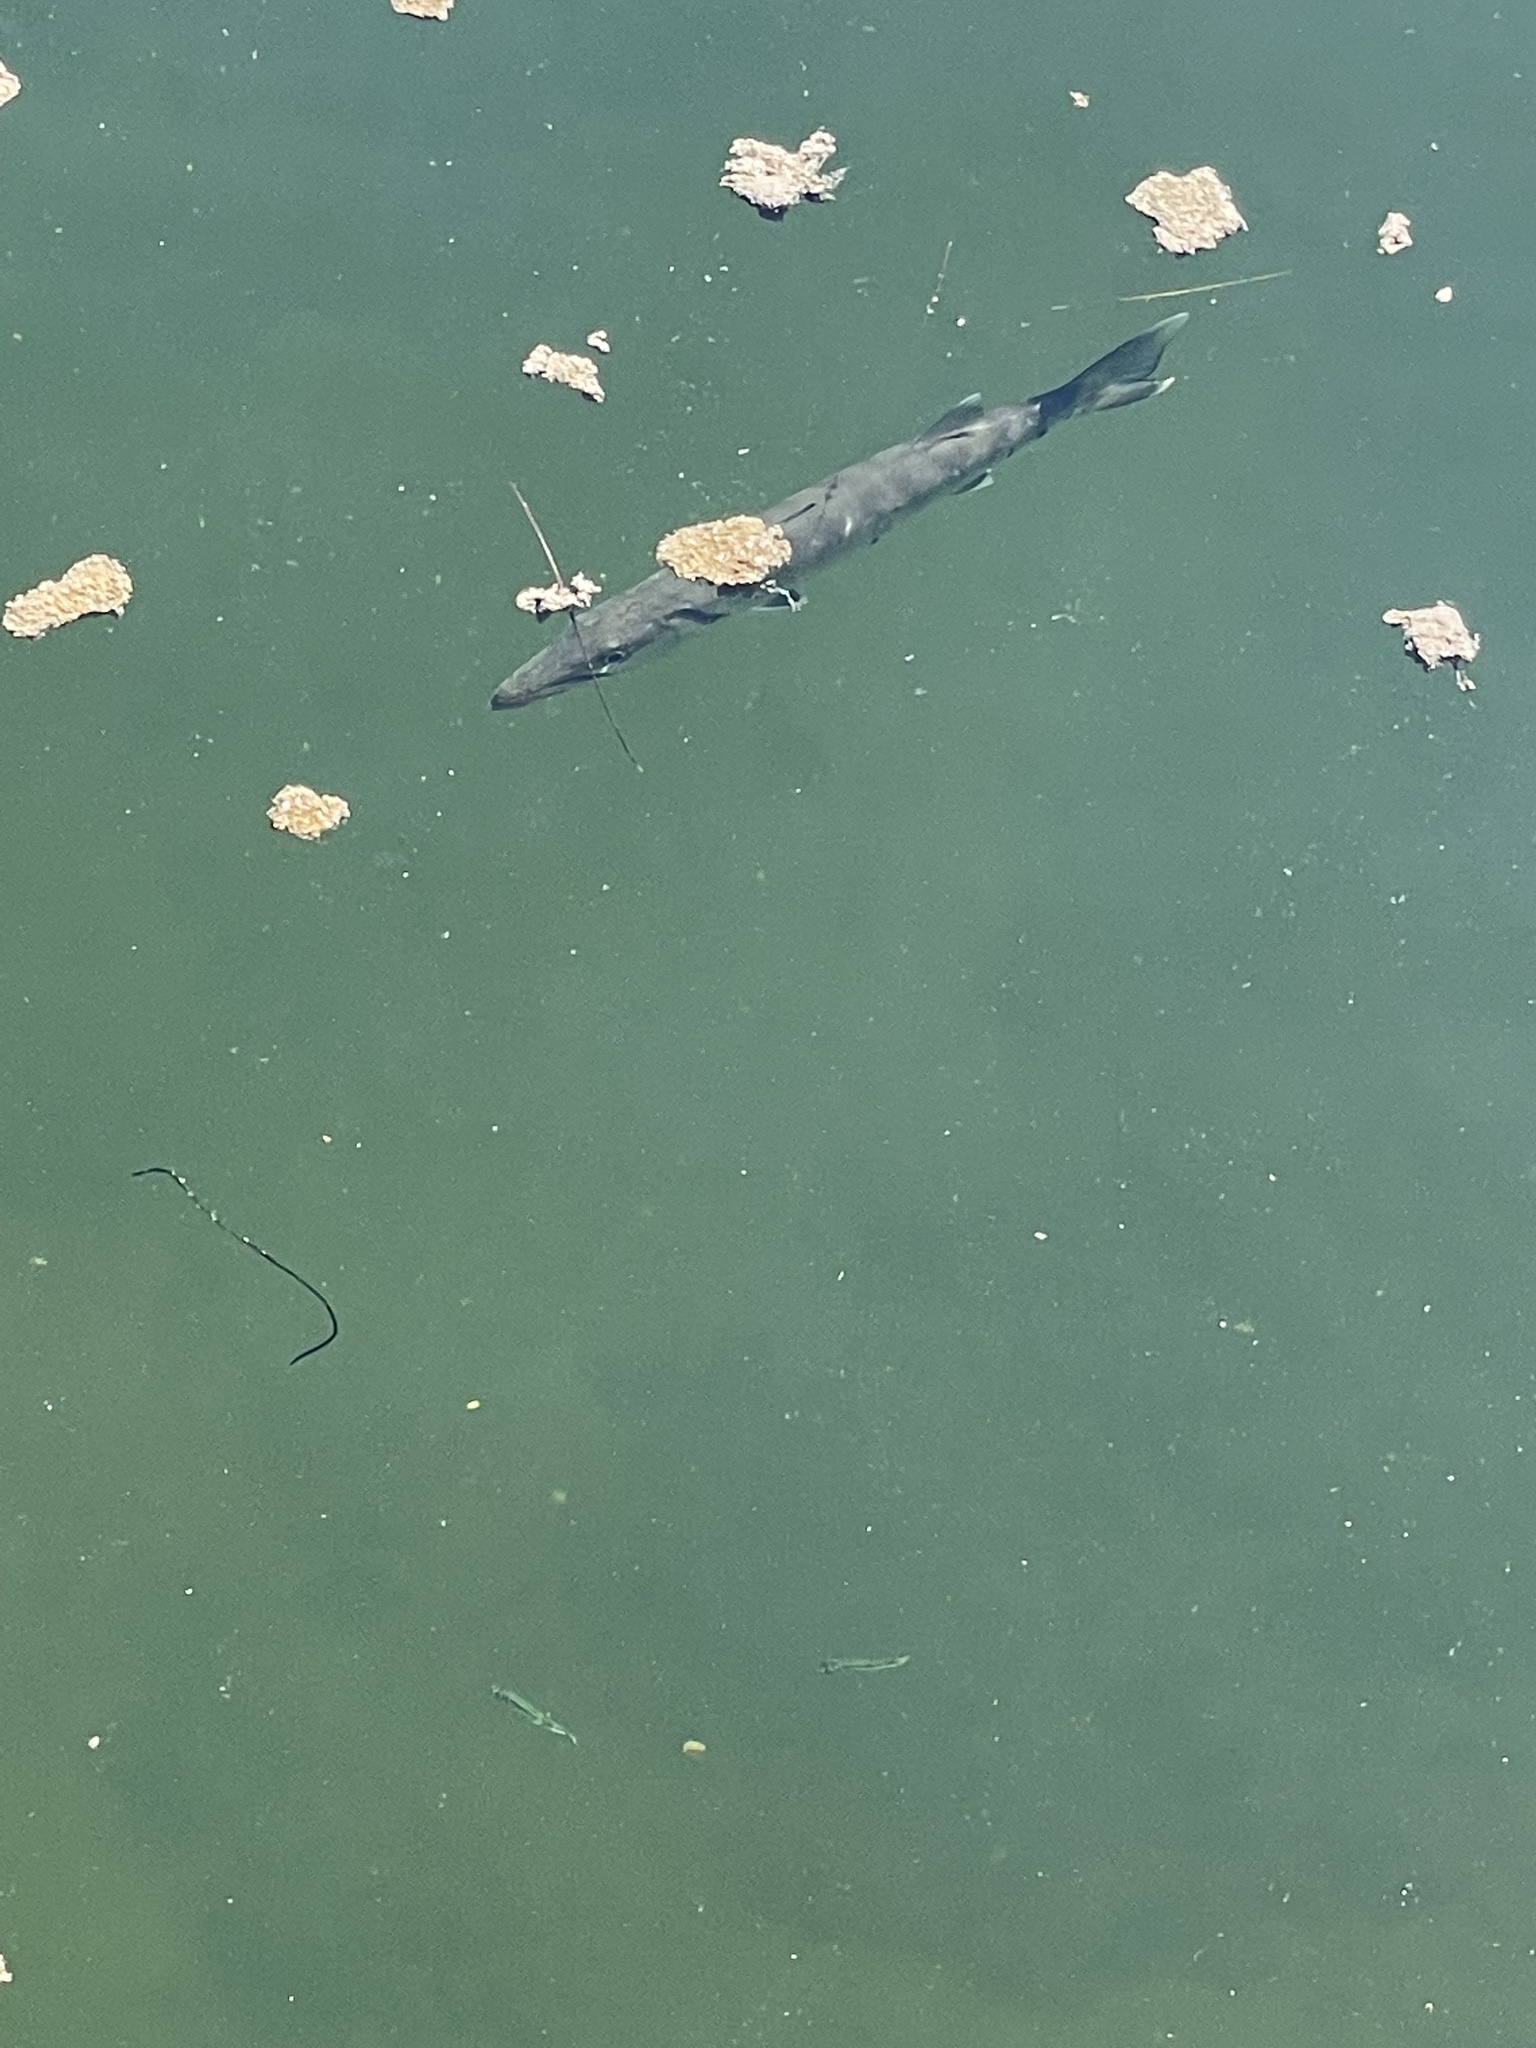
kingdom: Animalia
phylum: Chordata
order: Perciformes
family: Sphyraenidae
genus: Sphyraena
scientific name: Sphyraena barracuda
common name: Great barracuda
